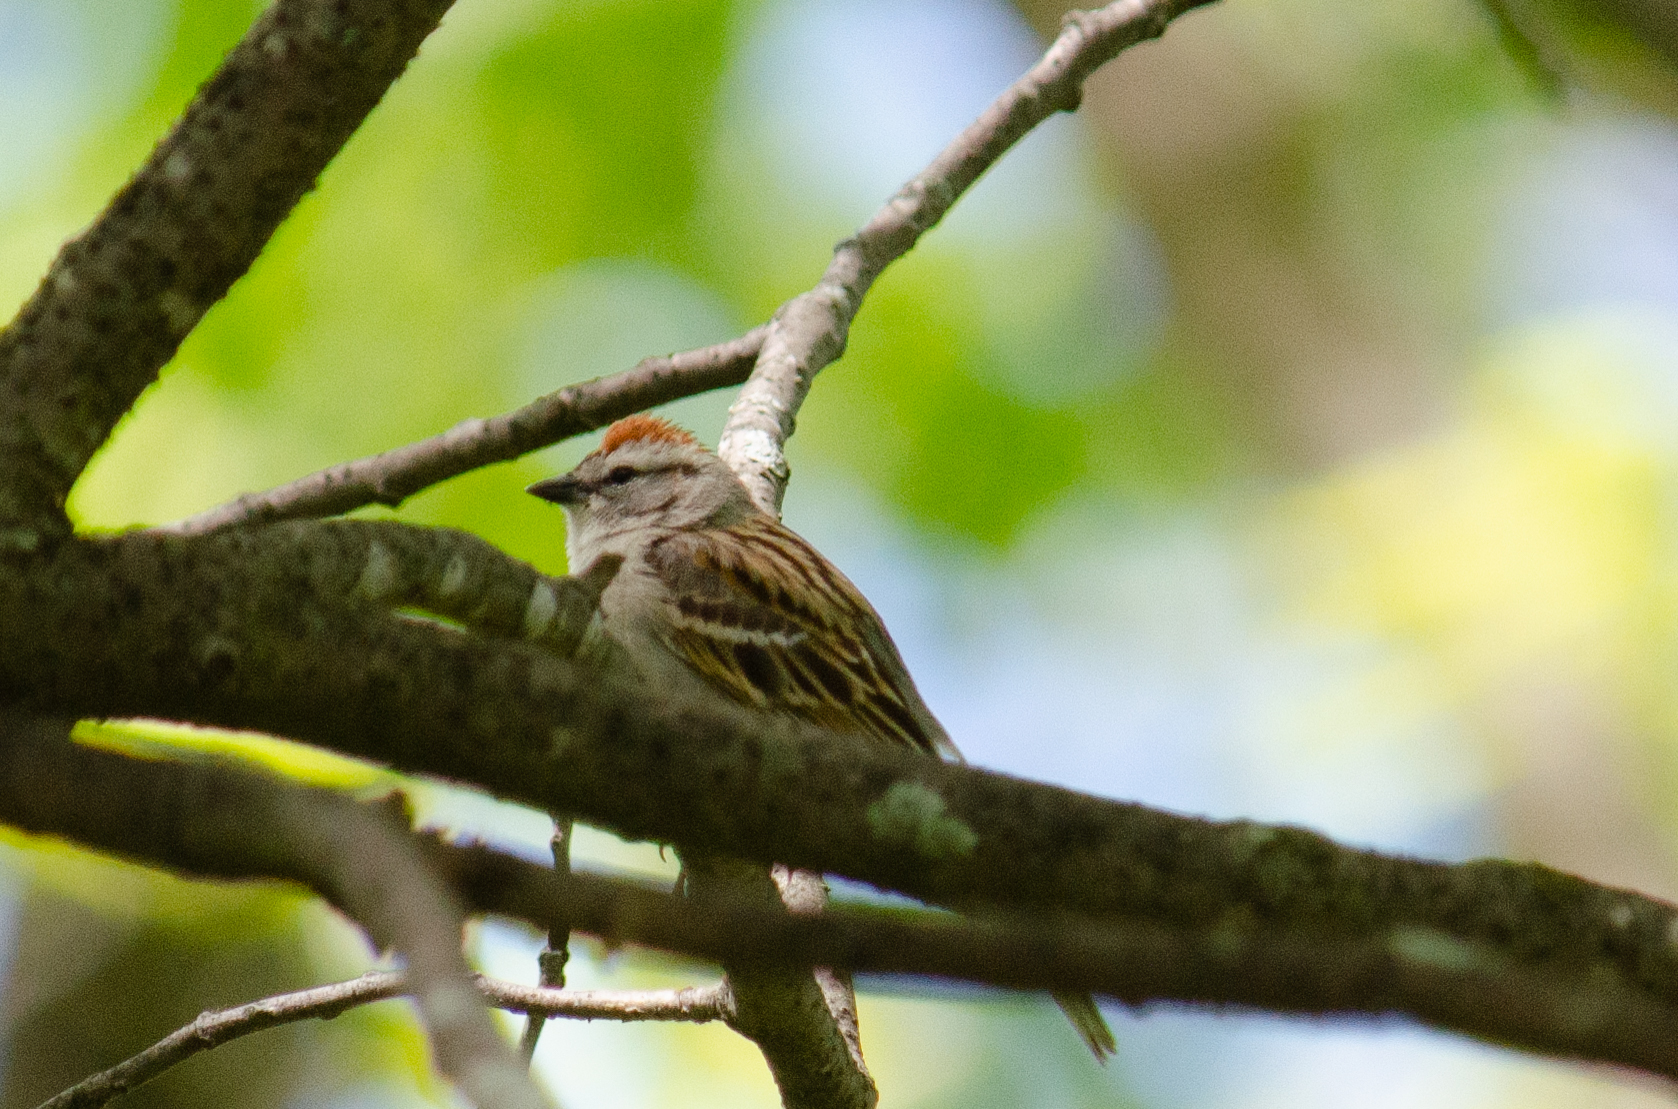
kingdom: Animalia
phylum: Chordata
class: Aves
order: Passeriformes
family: Passerellidae
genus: Spizella
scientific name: Spizella passerina
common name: Chipping sparrow
